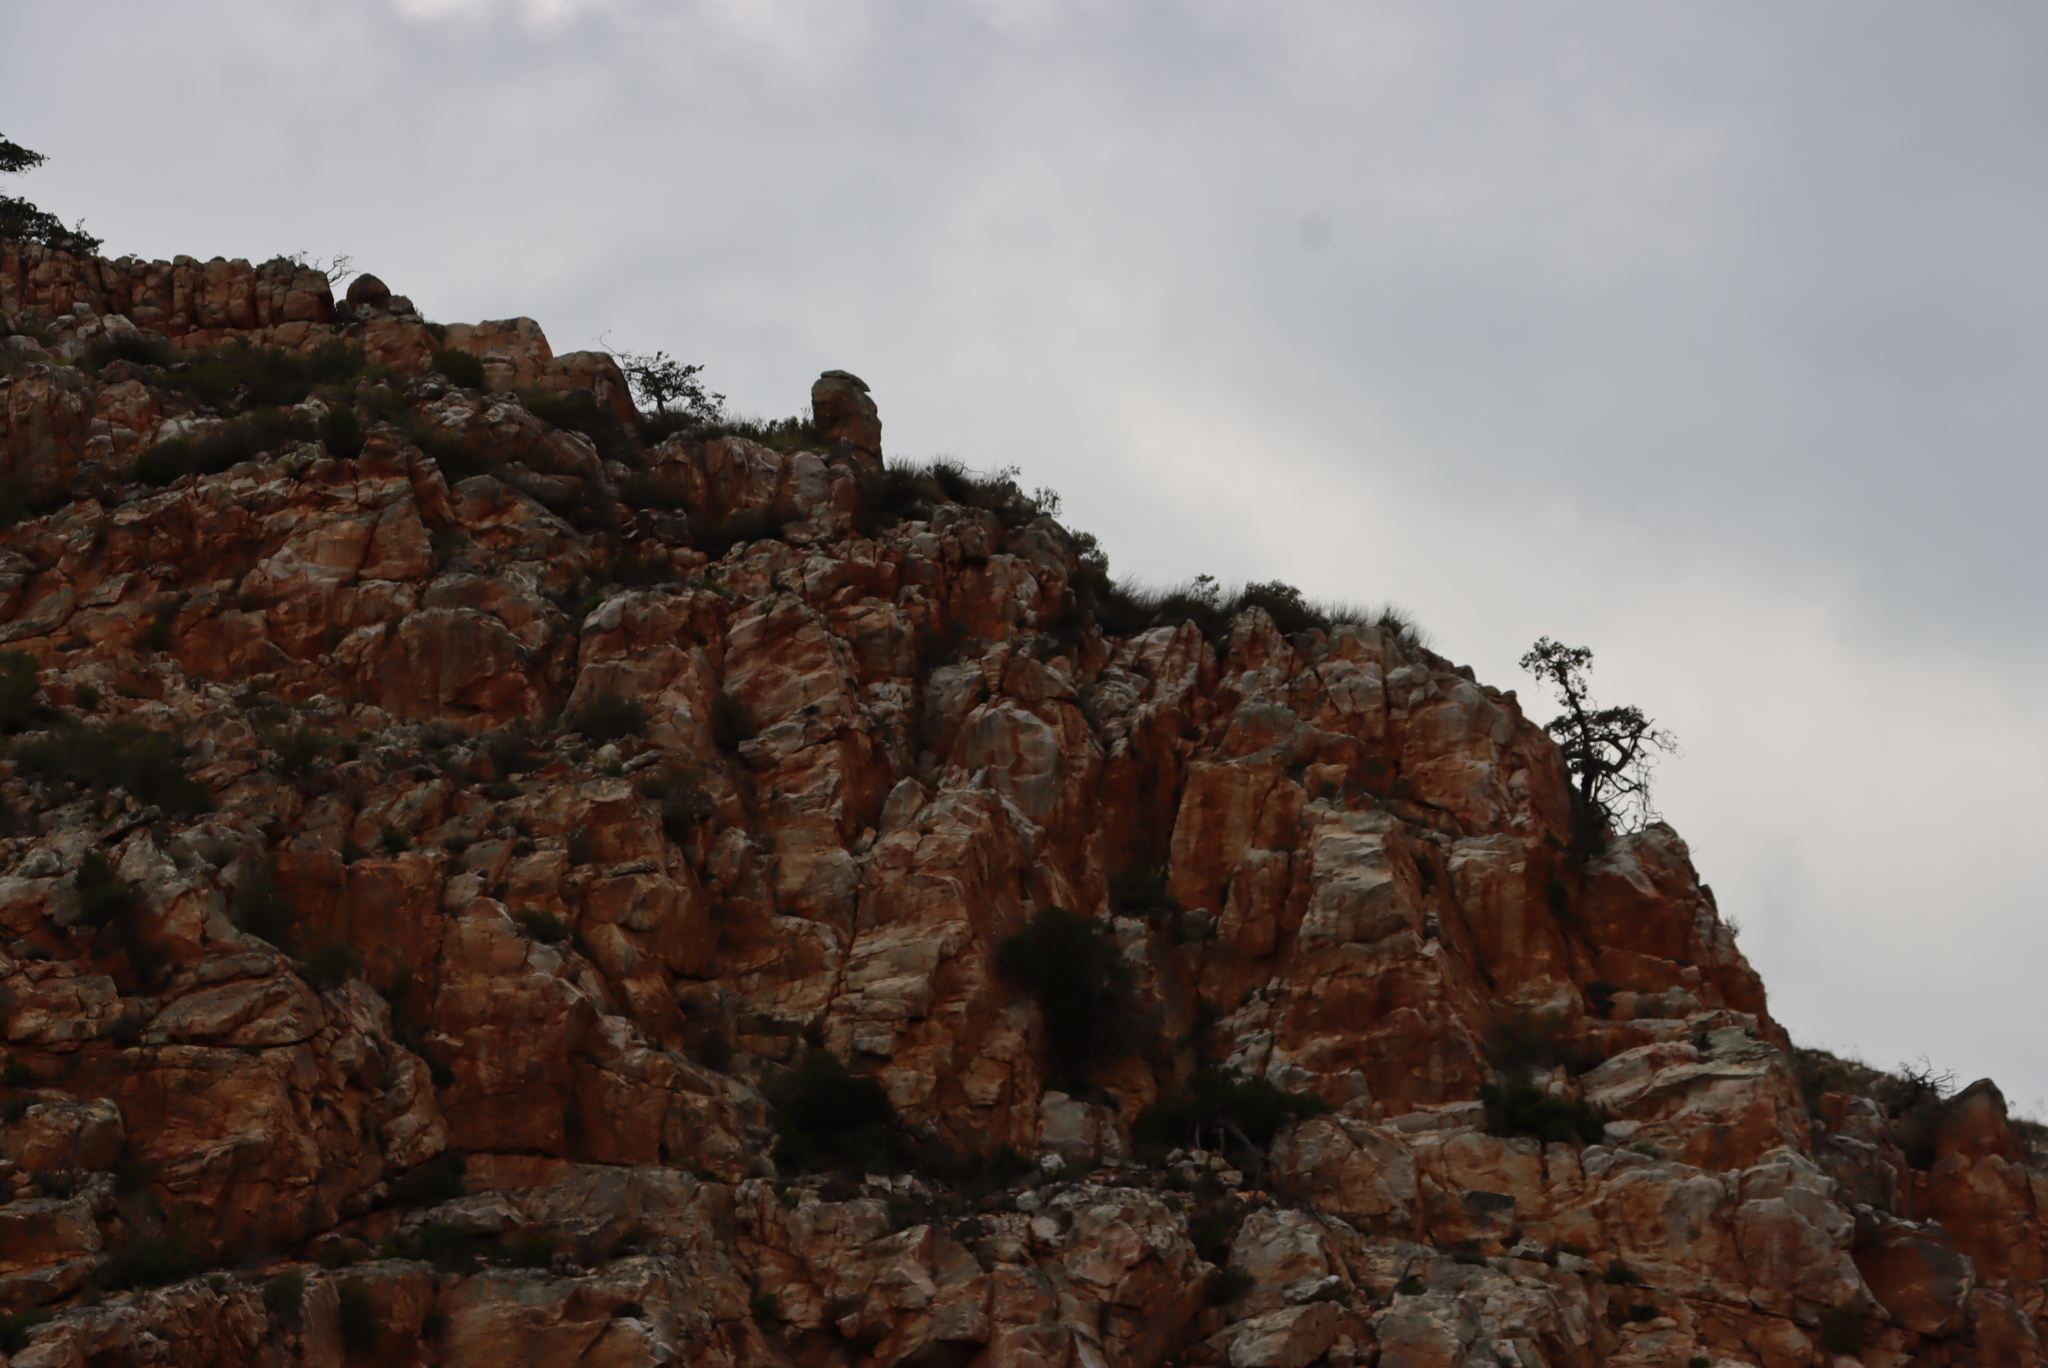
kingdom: Plantae
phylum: Tracheophyta
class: Pinopsida
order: Pinales
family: Cupressaceae
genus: Widdringtonia
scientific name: Widdringtonia schwarzii
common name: Baviaans cedar
